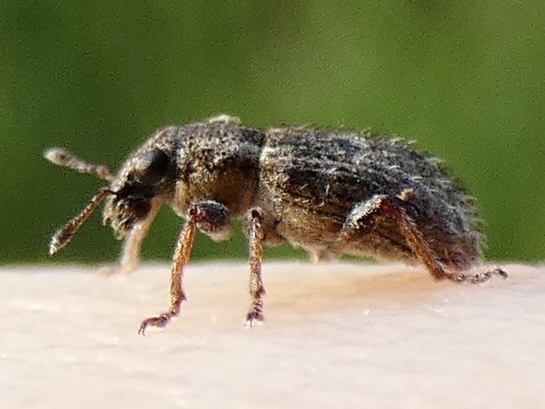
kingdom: Animalia
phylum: Arthropoda
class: Insecta
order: Coleoptera
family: Curculionidae
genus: Sitona
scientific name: Sitona hispidulus
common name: Clover weevil
